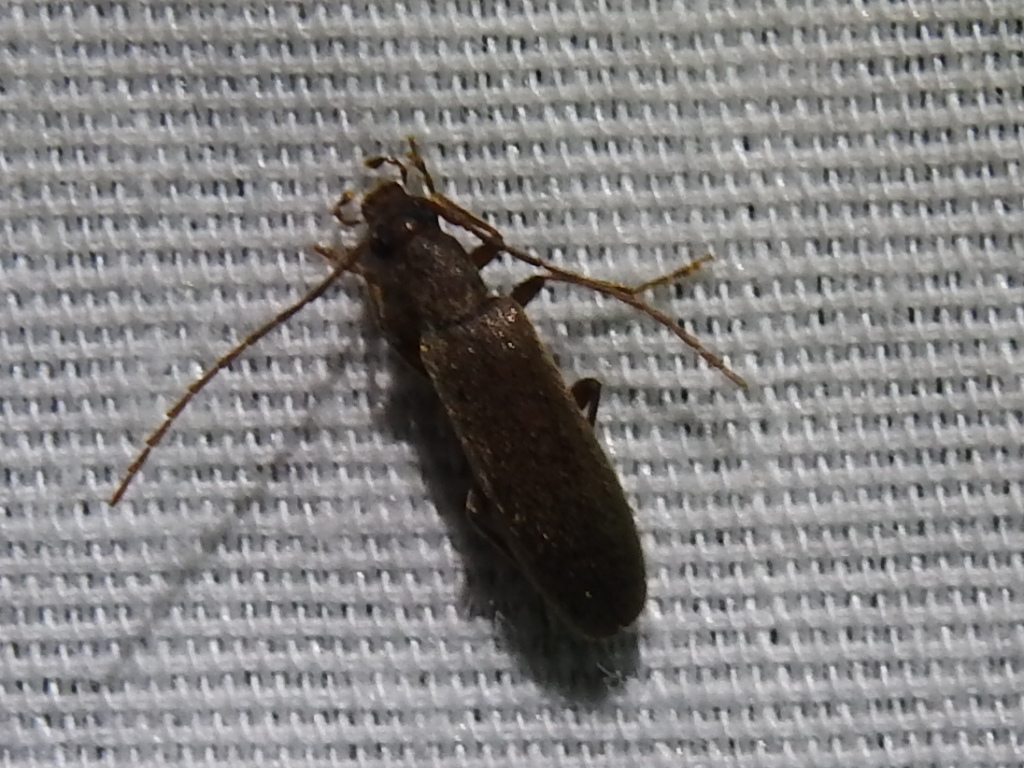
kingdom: Animalia
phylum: Arthropoda
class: Insecta
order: Coleoptera
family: Oedemeridae
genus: Sparedrus
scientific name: Sparedrus aspersus
